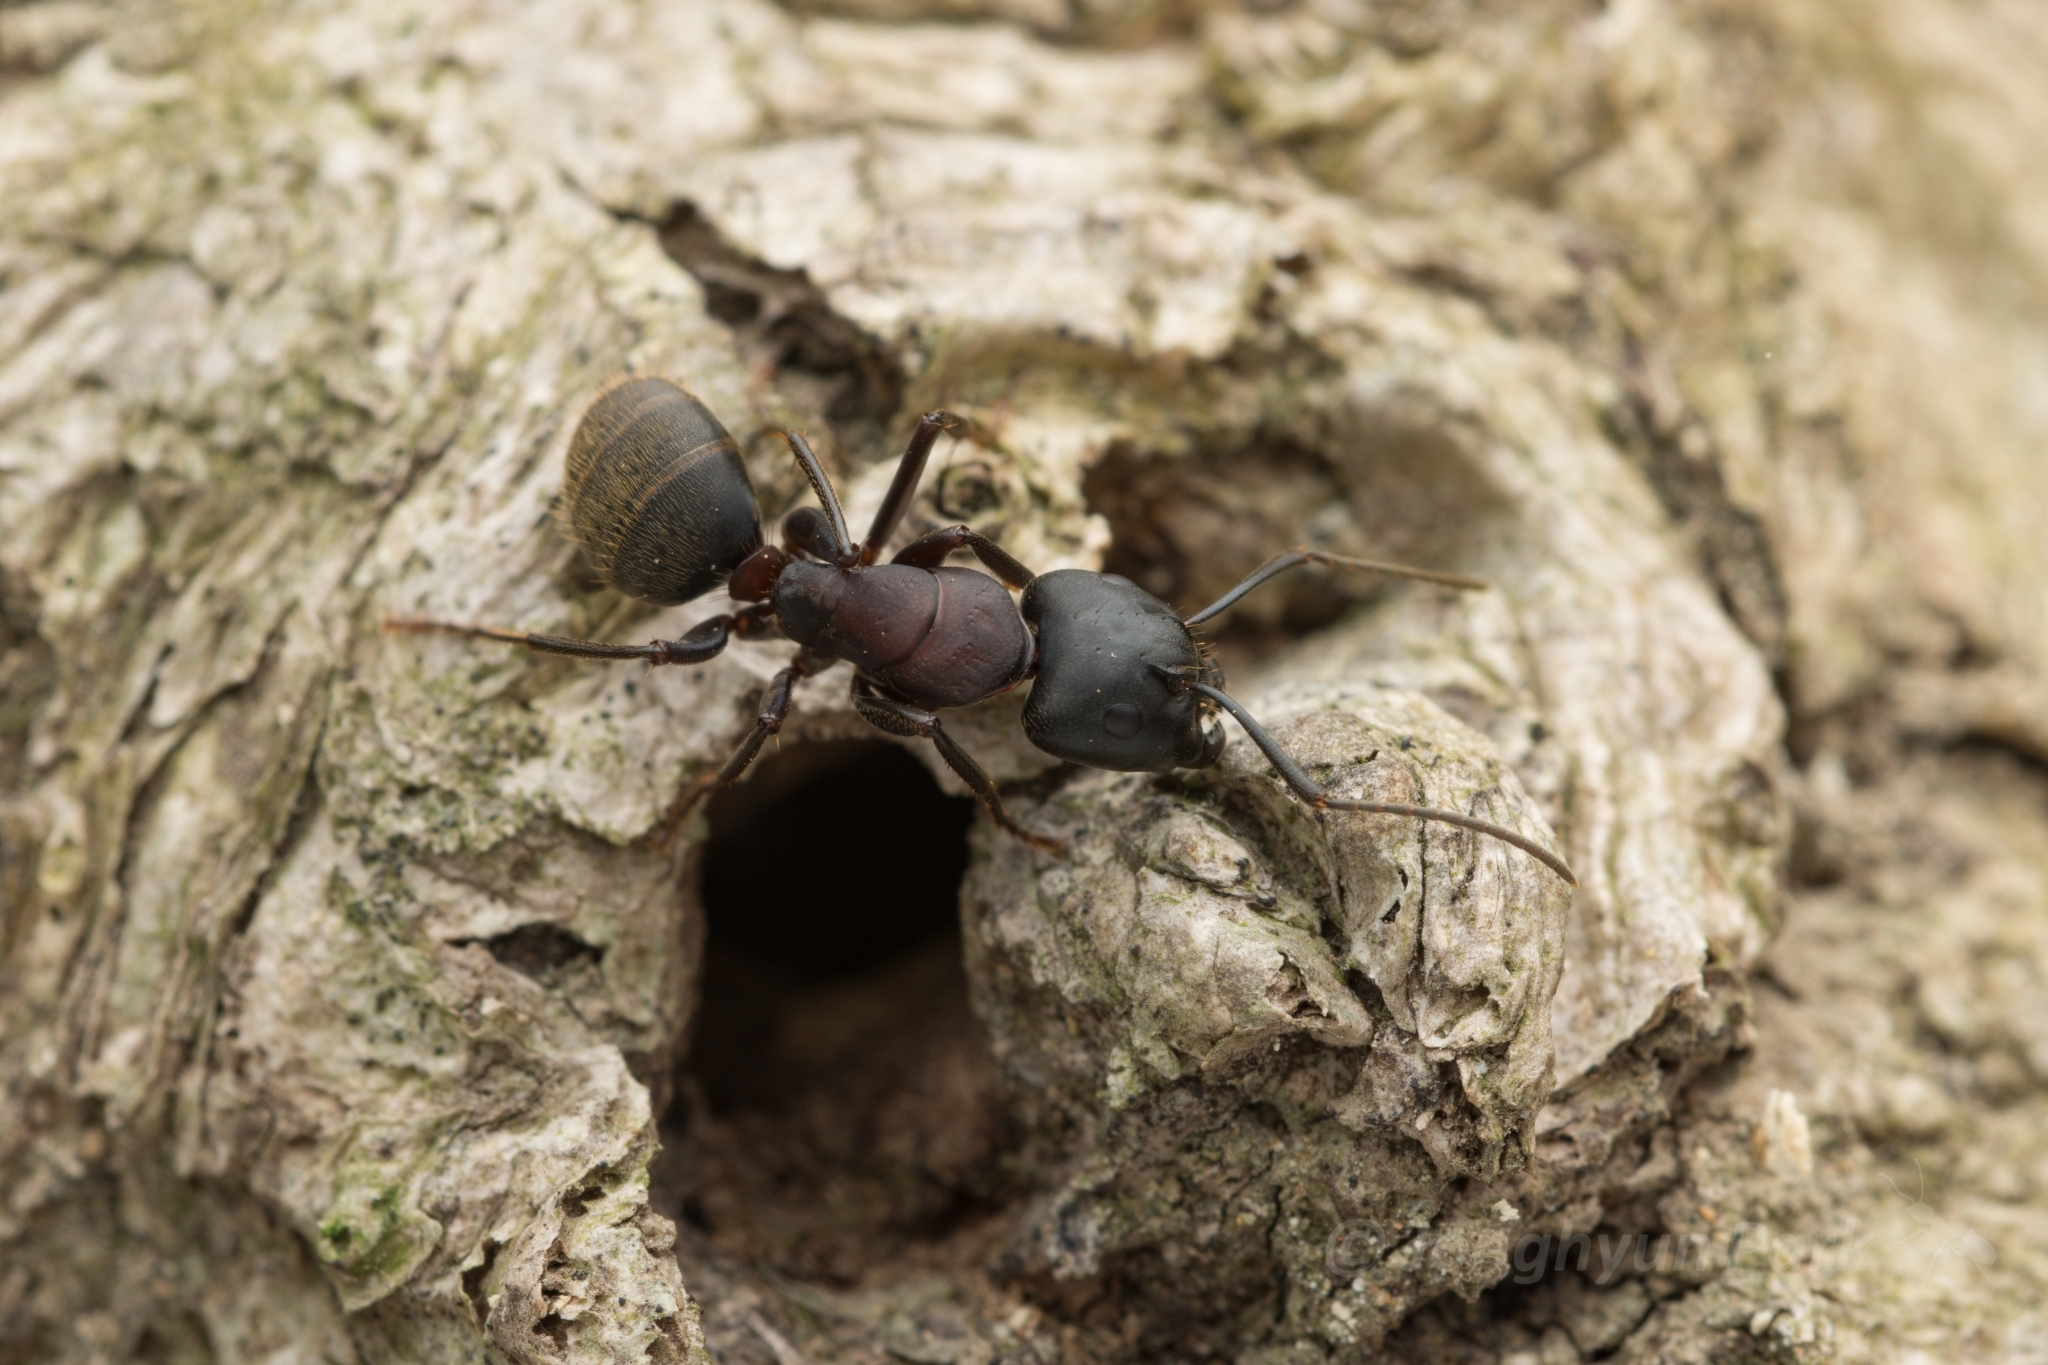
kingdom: Animalia
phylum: Arthropoda
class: Insecta
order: Hymenoptera
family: Formicidae
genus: Camponotus
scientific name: Camponotus atrox
